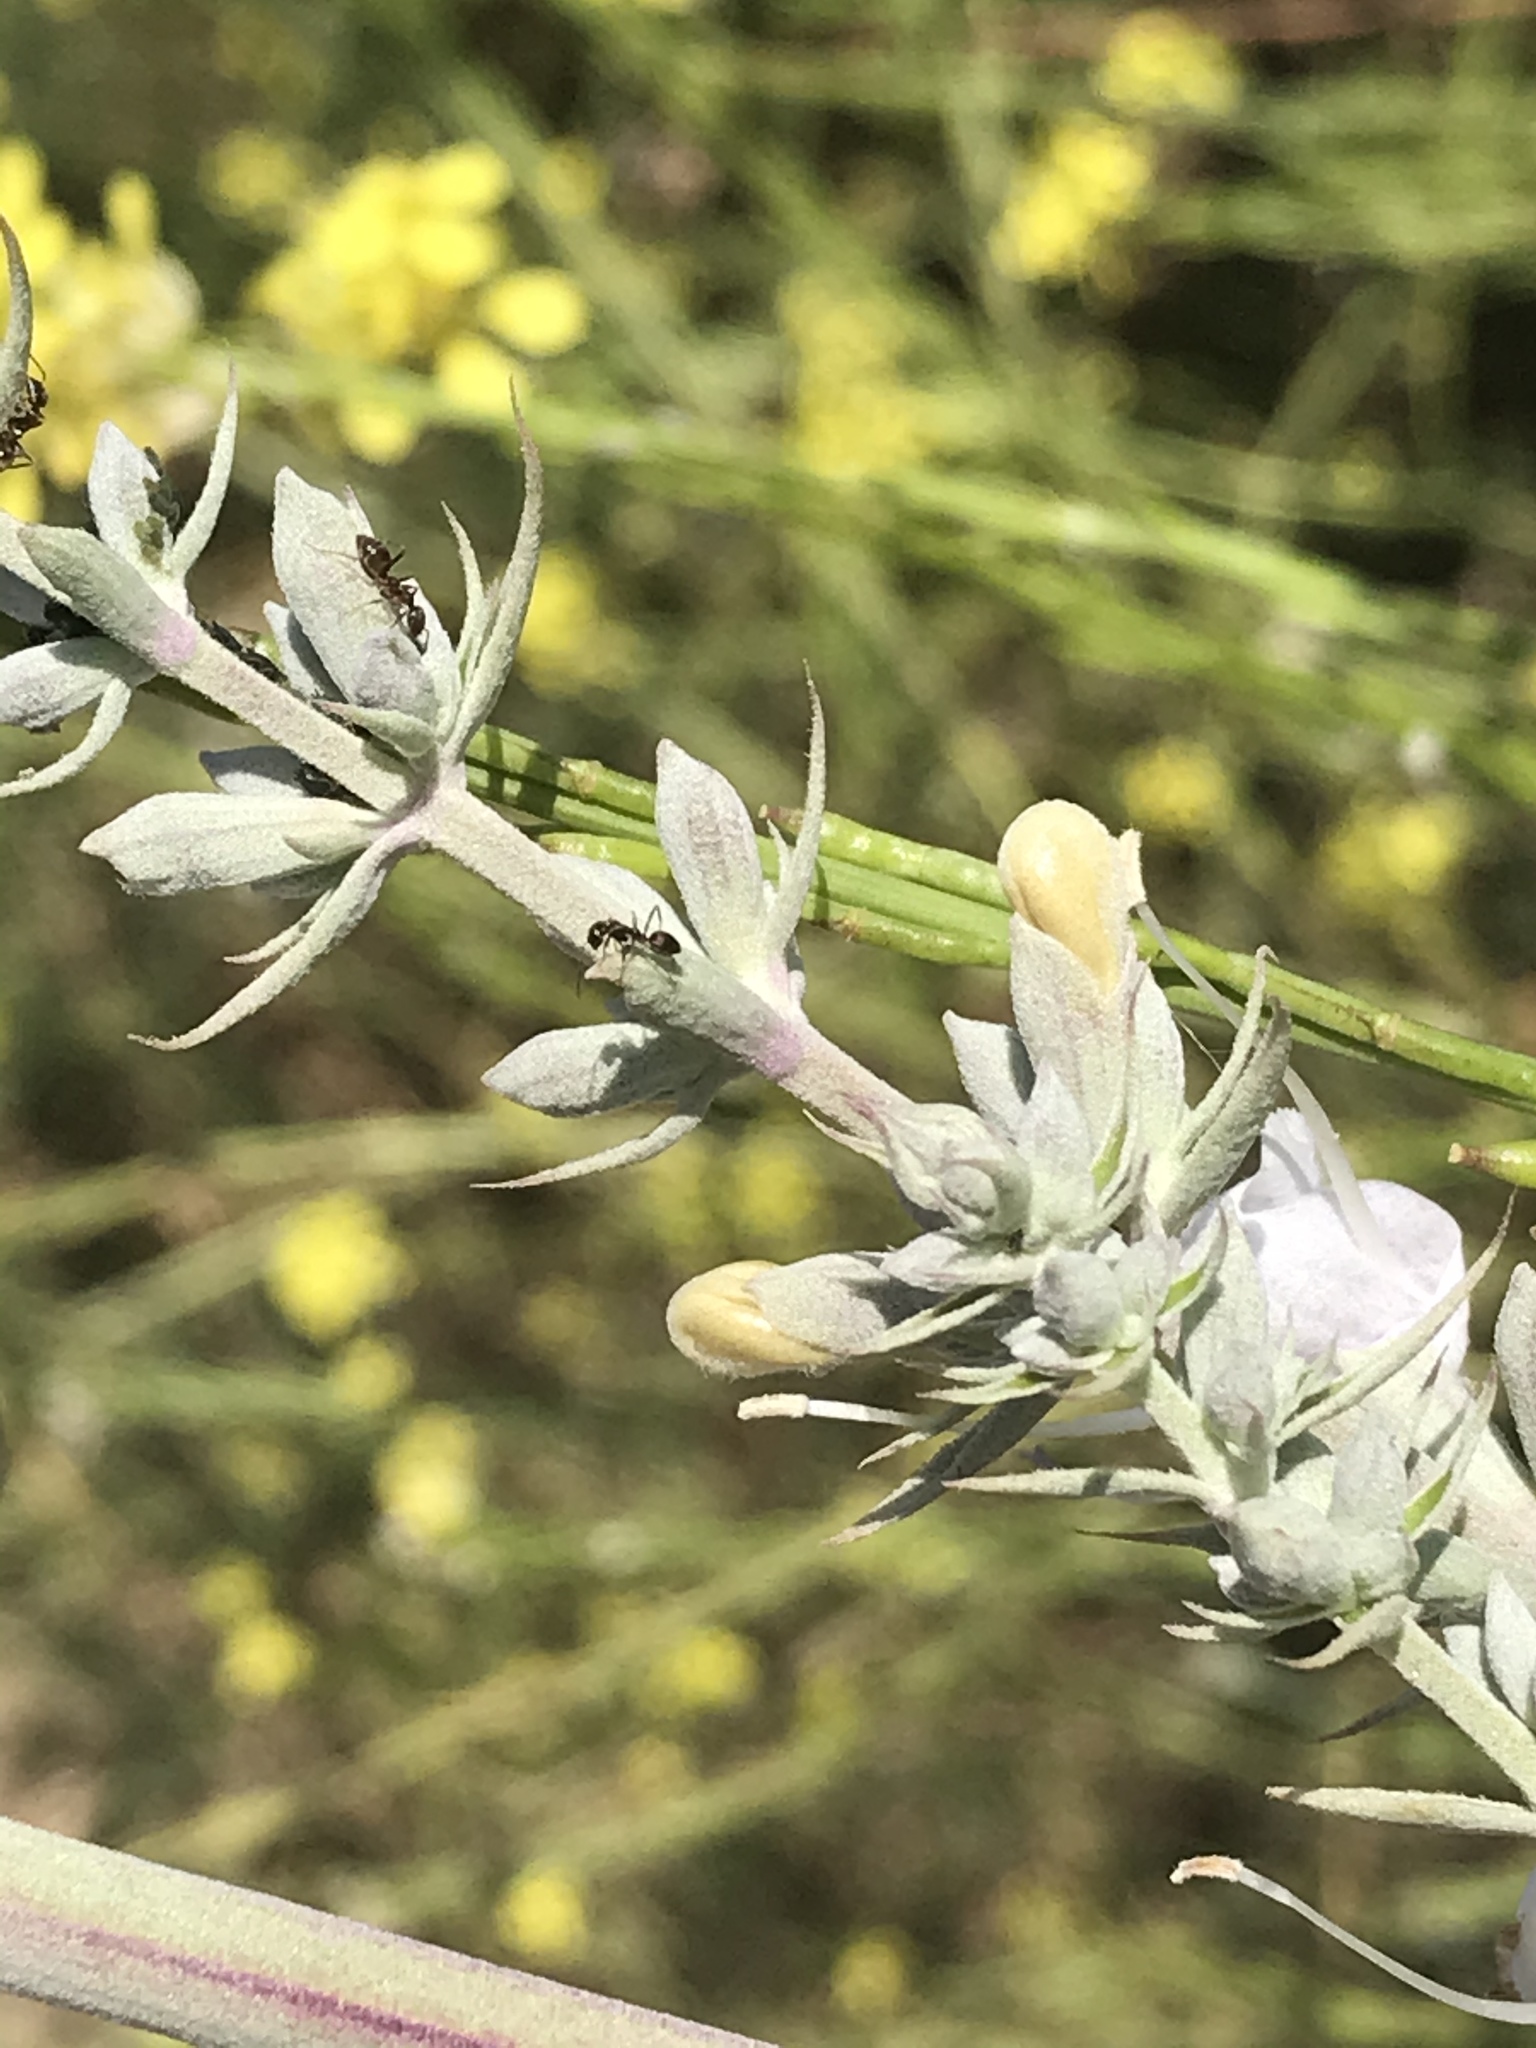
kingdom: Animalia
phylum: Arthropoda
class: Insecta
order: Hymenoptera
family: Formicidae
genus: Linepithema
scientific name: Linepithema humile
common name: Argentine ant
